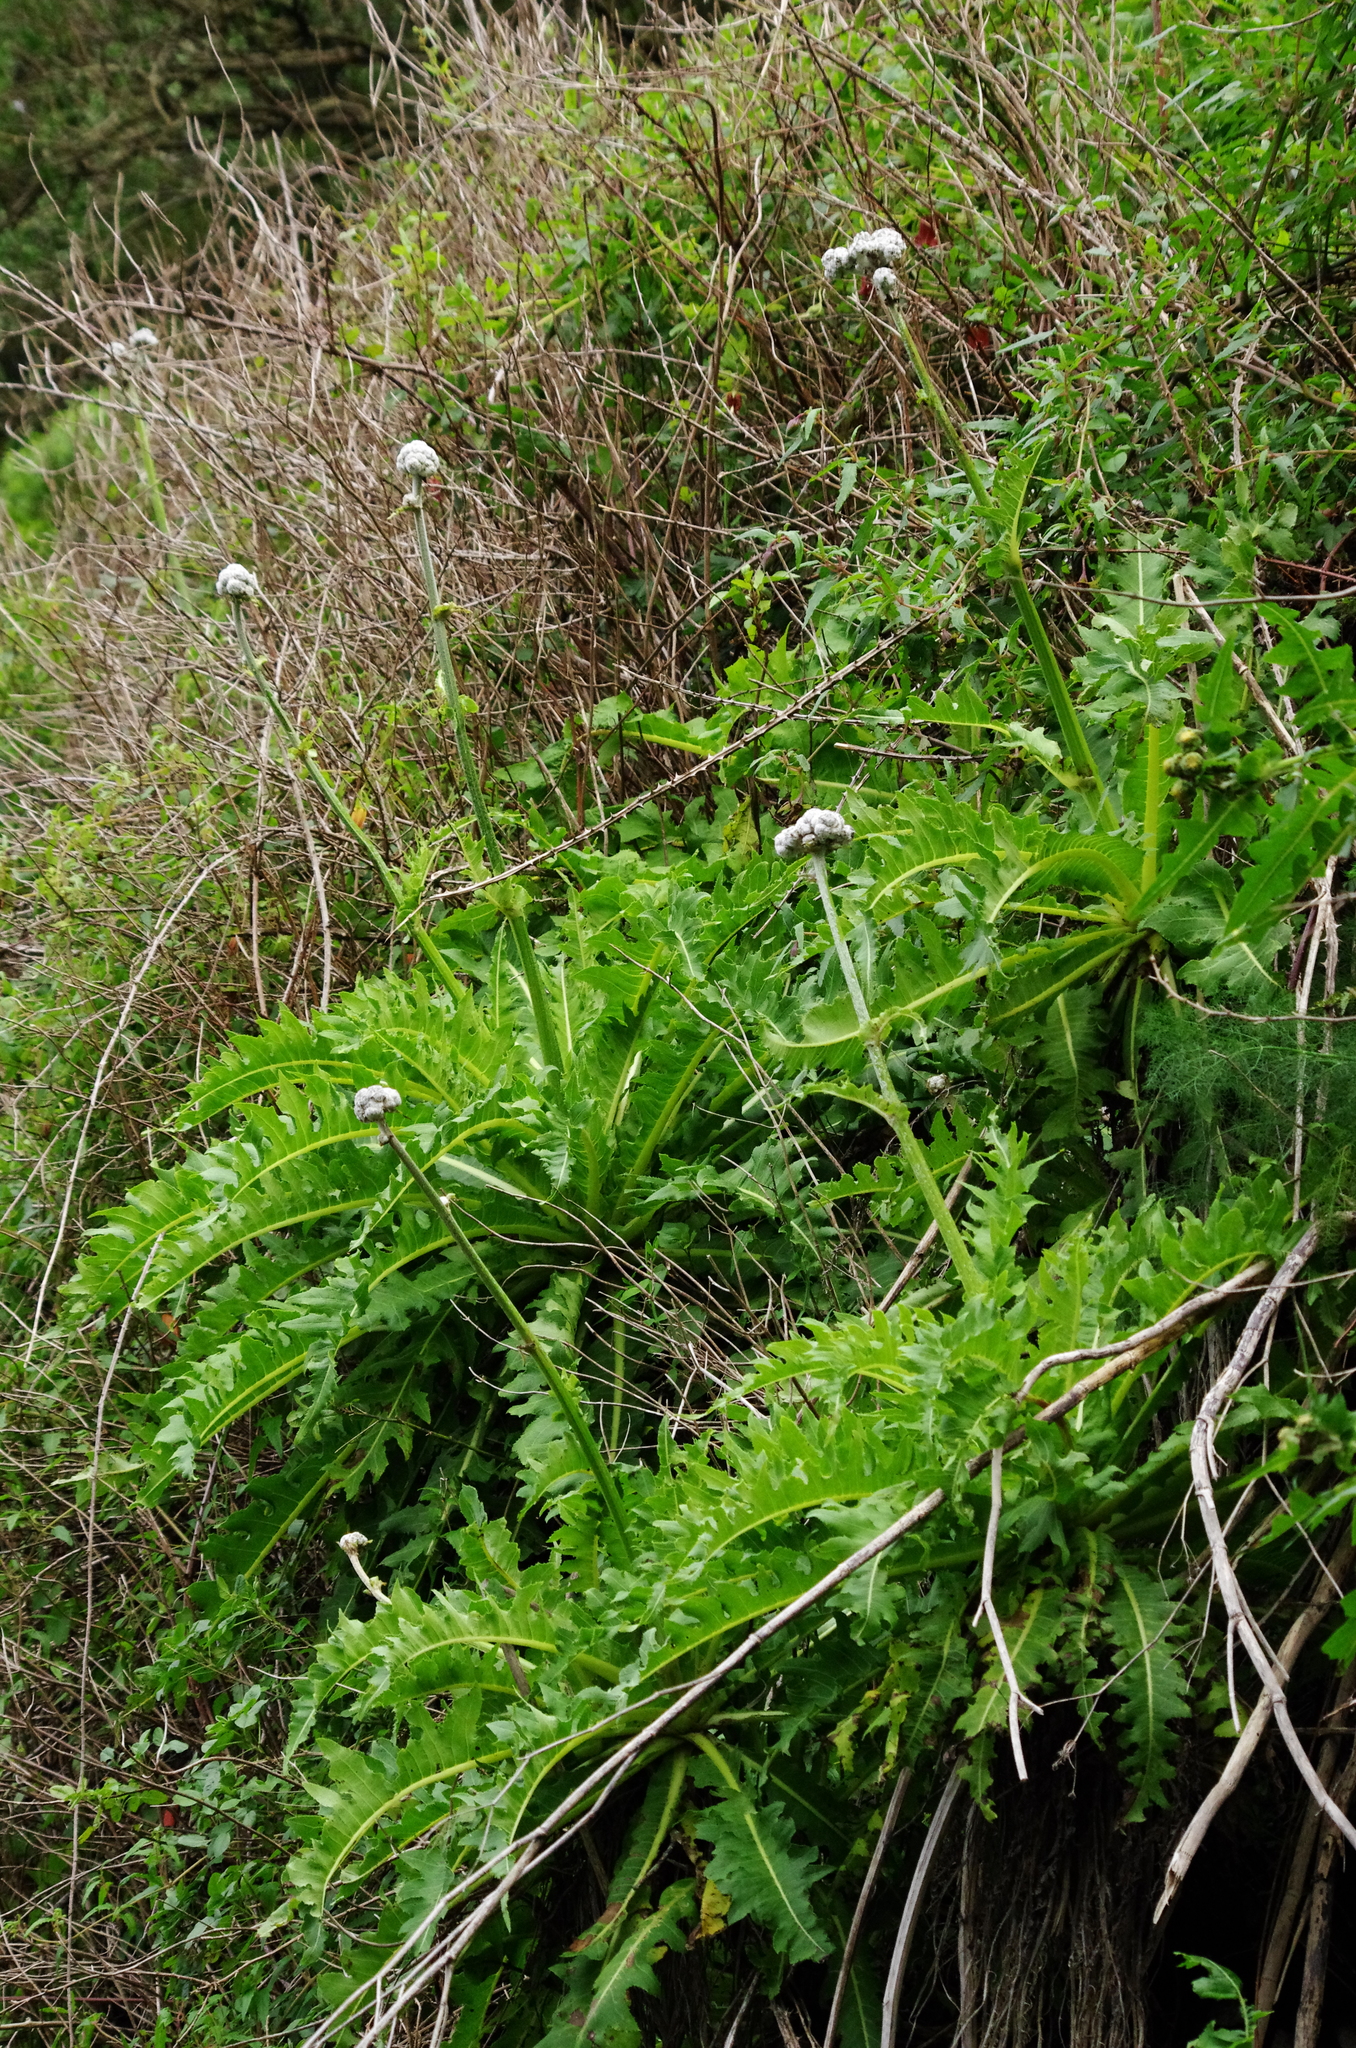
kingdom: Plantae
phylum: Tracheophyta
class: Magnoliopsida
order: Asterales
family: Asteraceae
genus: Sonchus
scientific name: Sonchus acaulis
